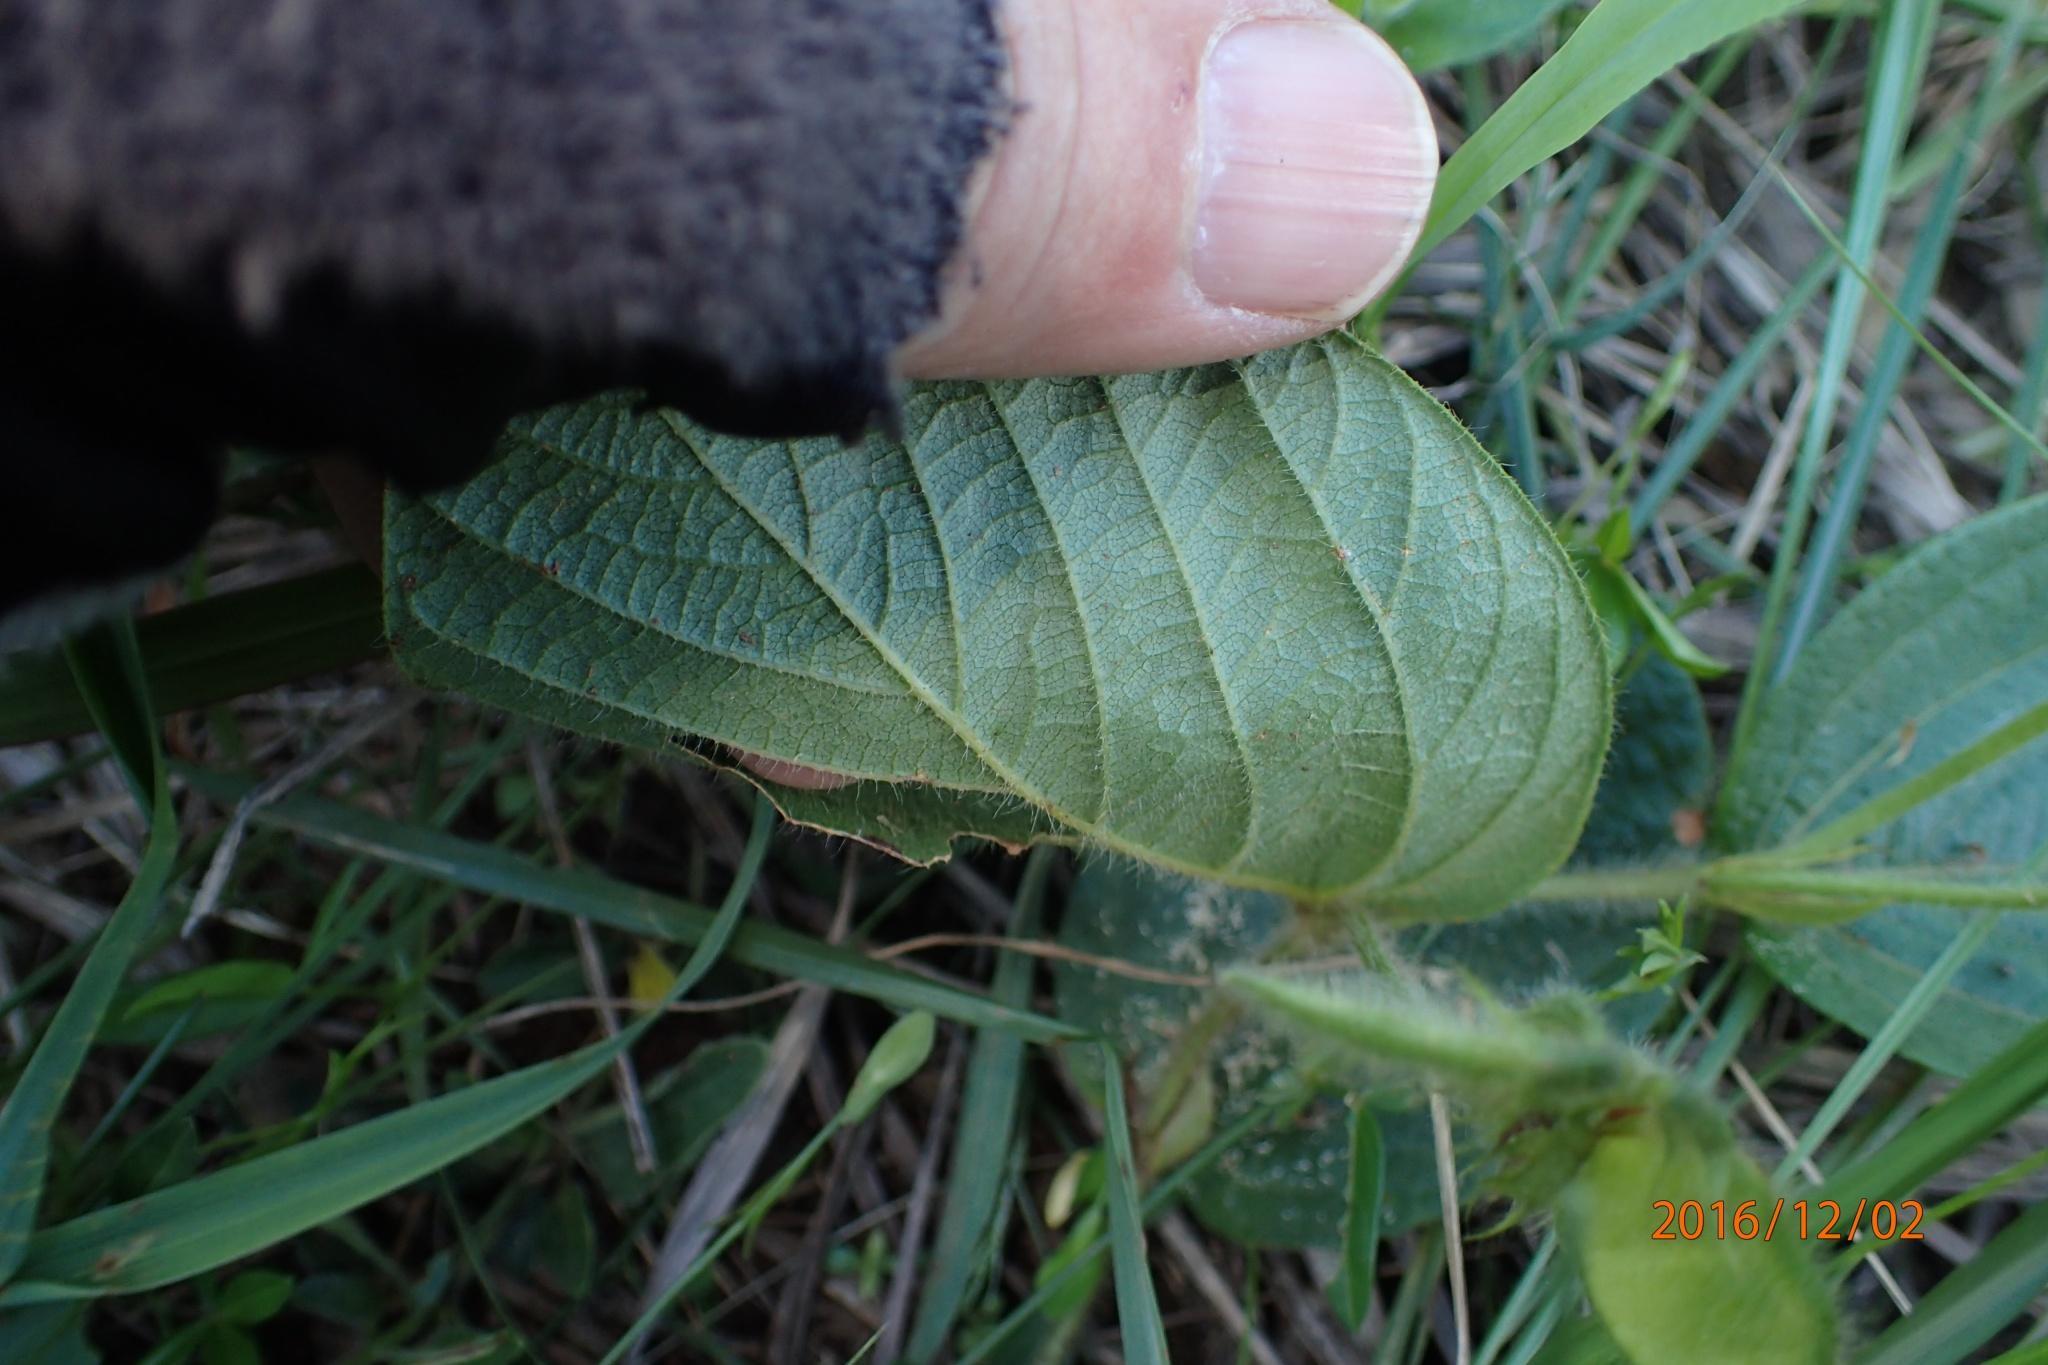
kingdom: Plantae
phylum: Tracheophyta
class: Magnoliopsida
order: Fabales
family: Fabaceae
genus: Eriosema
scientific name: Eriosema cordatum
